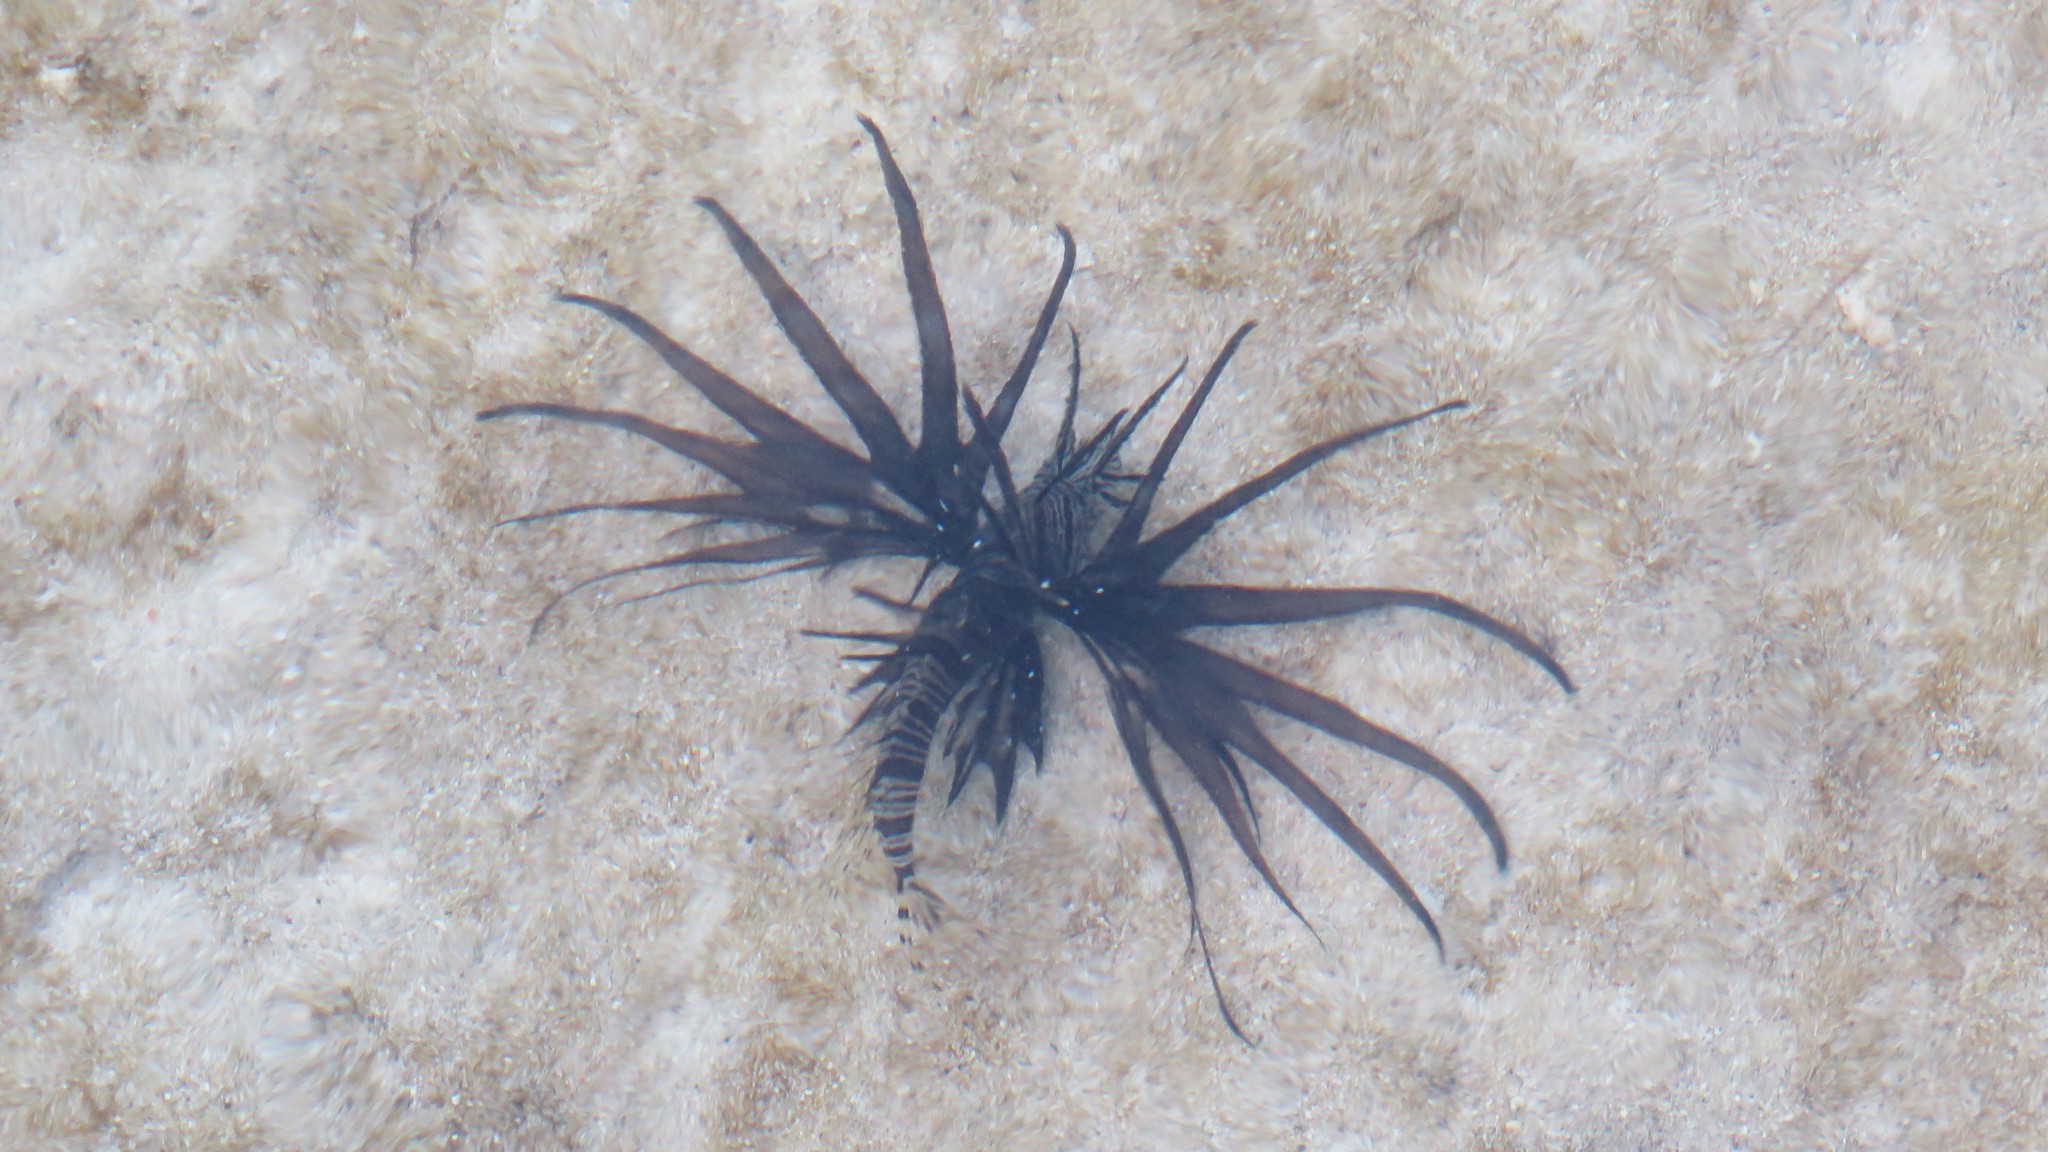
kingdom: Animalia
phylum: Chordata
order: Scorpaeniformes
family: Scorpaenidae
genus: Pterois
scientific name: Pterois volitans
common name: Lionfish
